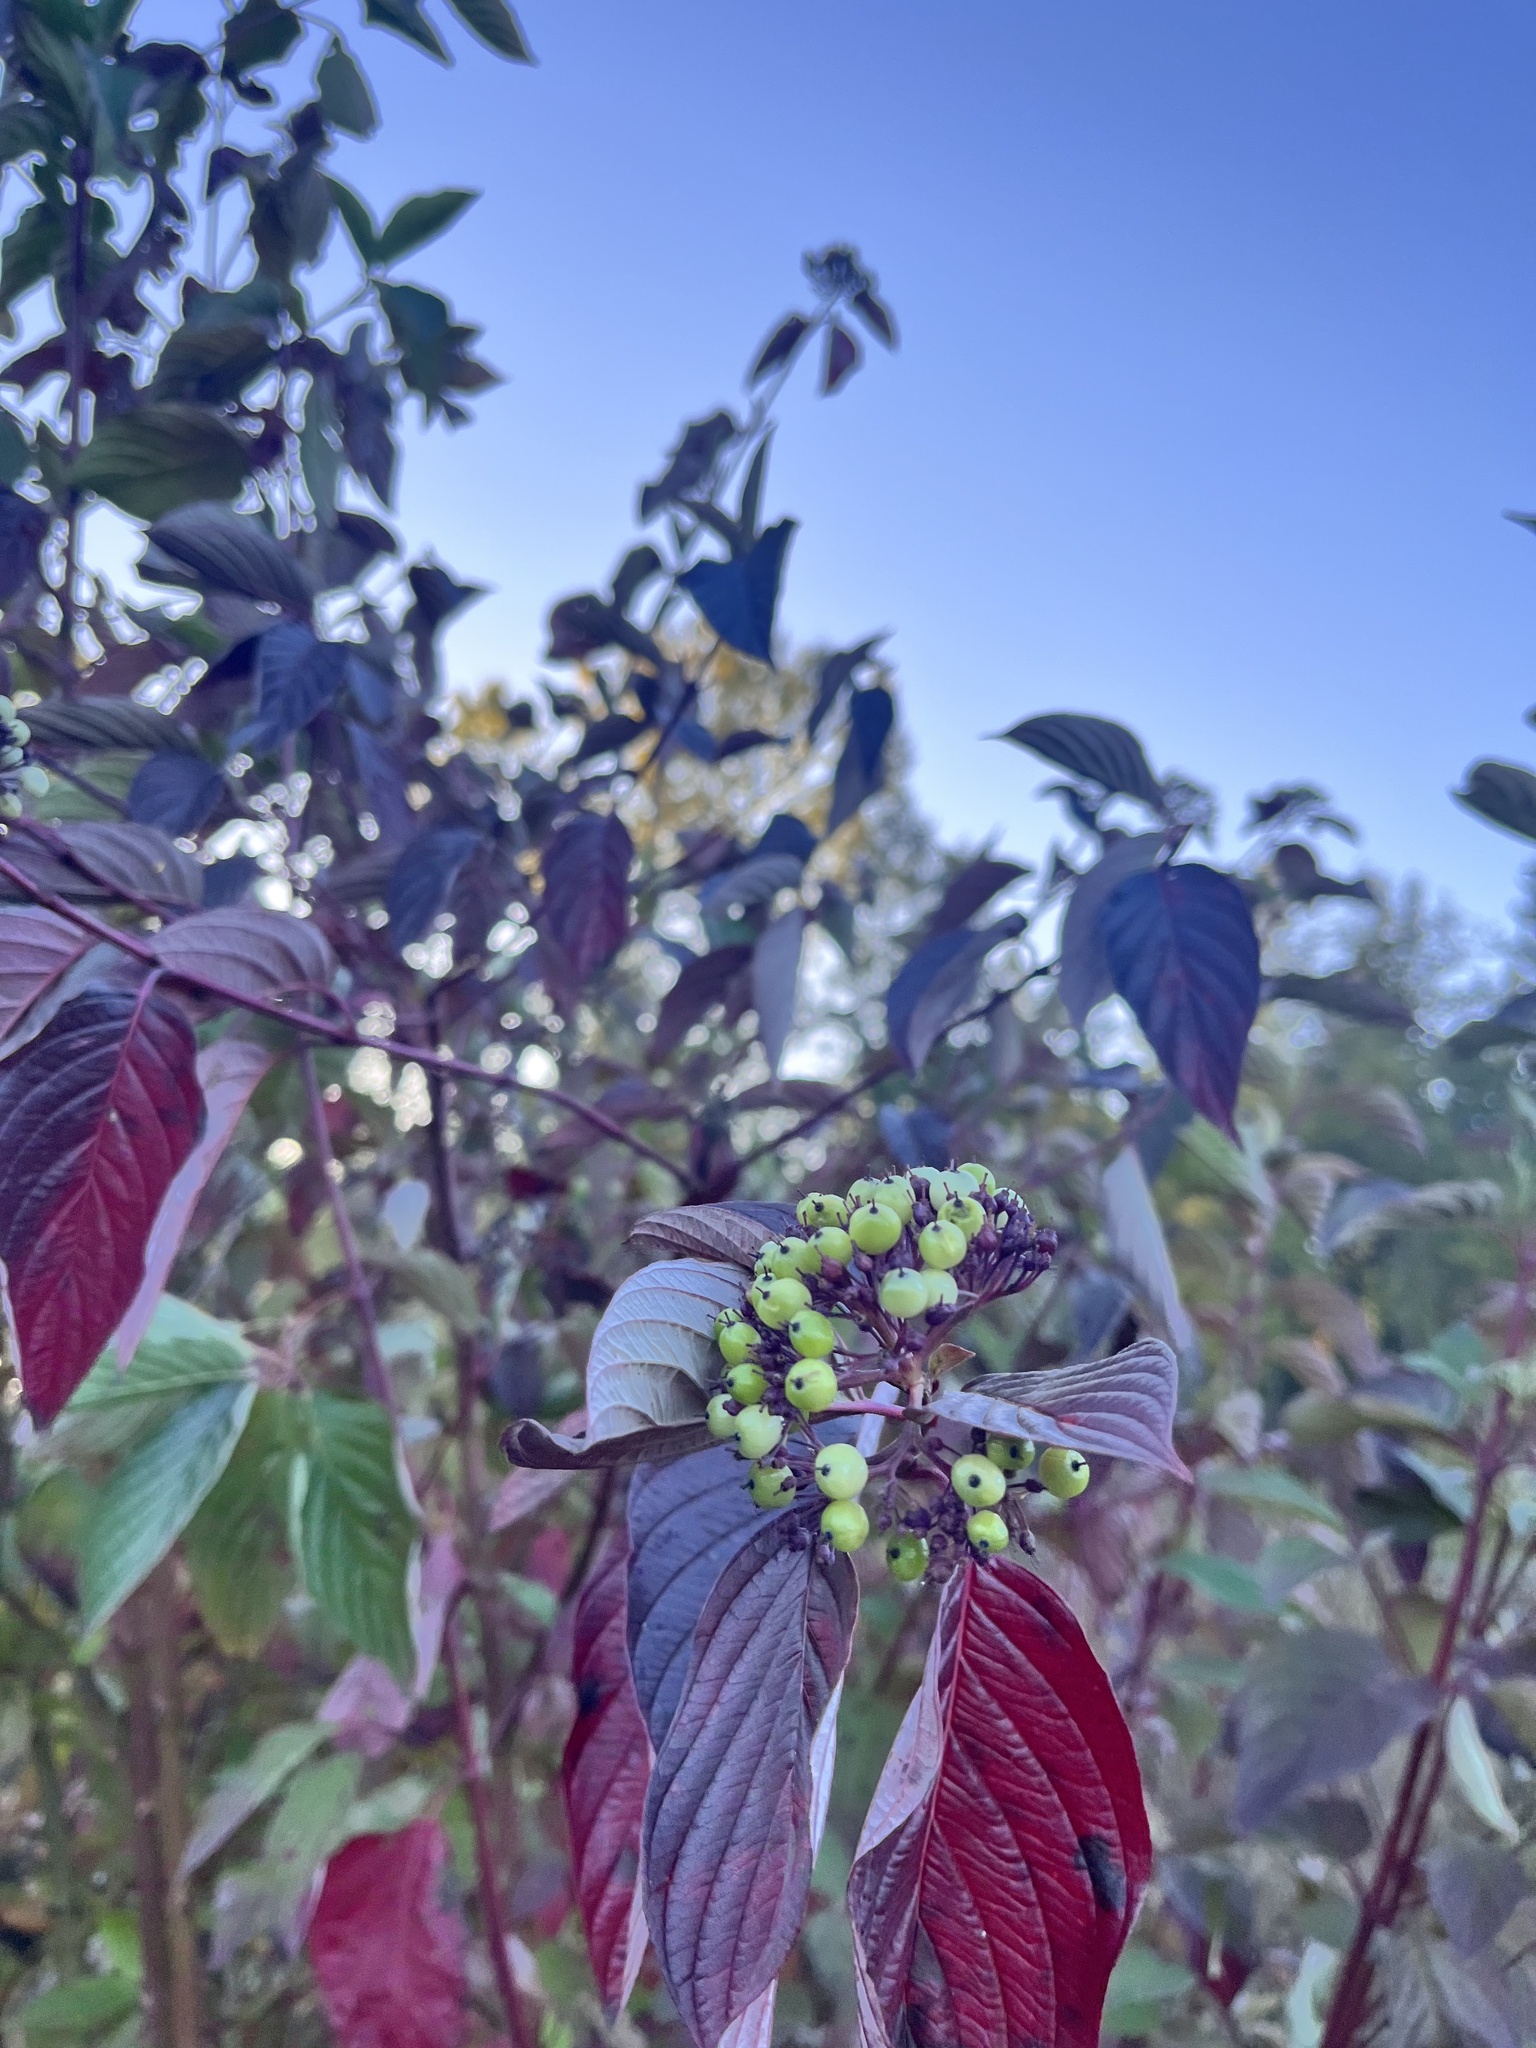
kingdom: Plantae
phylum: Tracheophyta
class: Magnoliopsida
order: Cornales
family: Cornaceae
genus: Cornus
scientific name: Cornus sericea
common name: Red-osier dogwood
